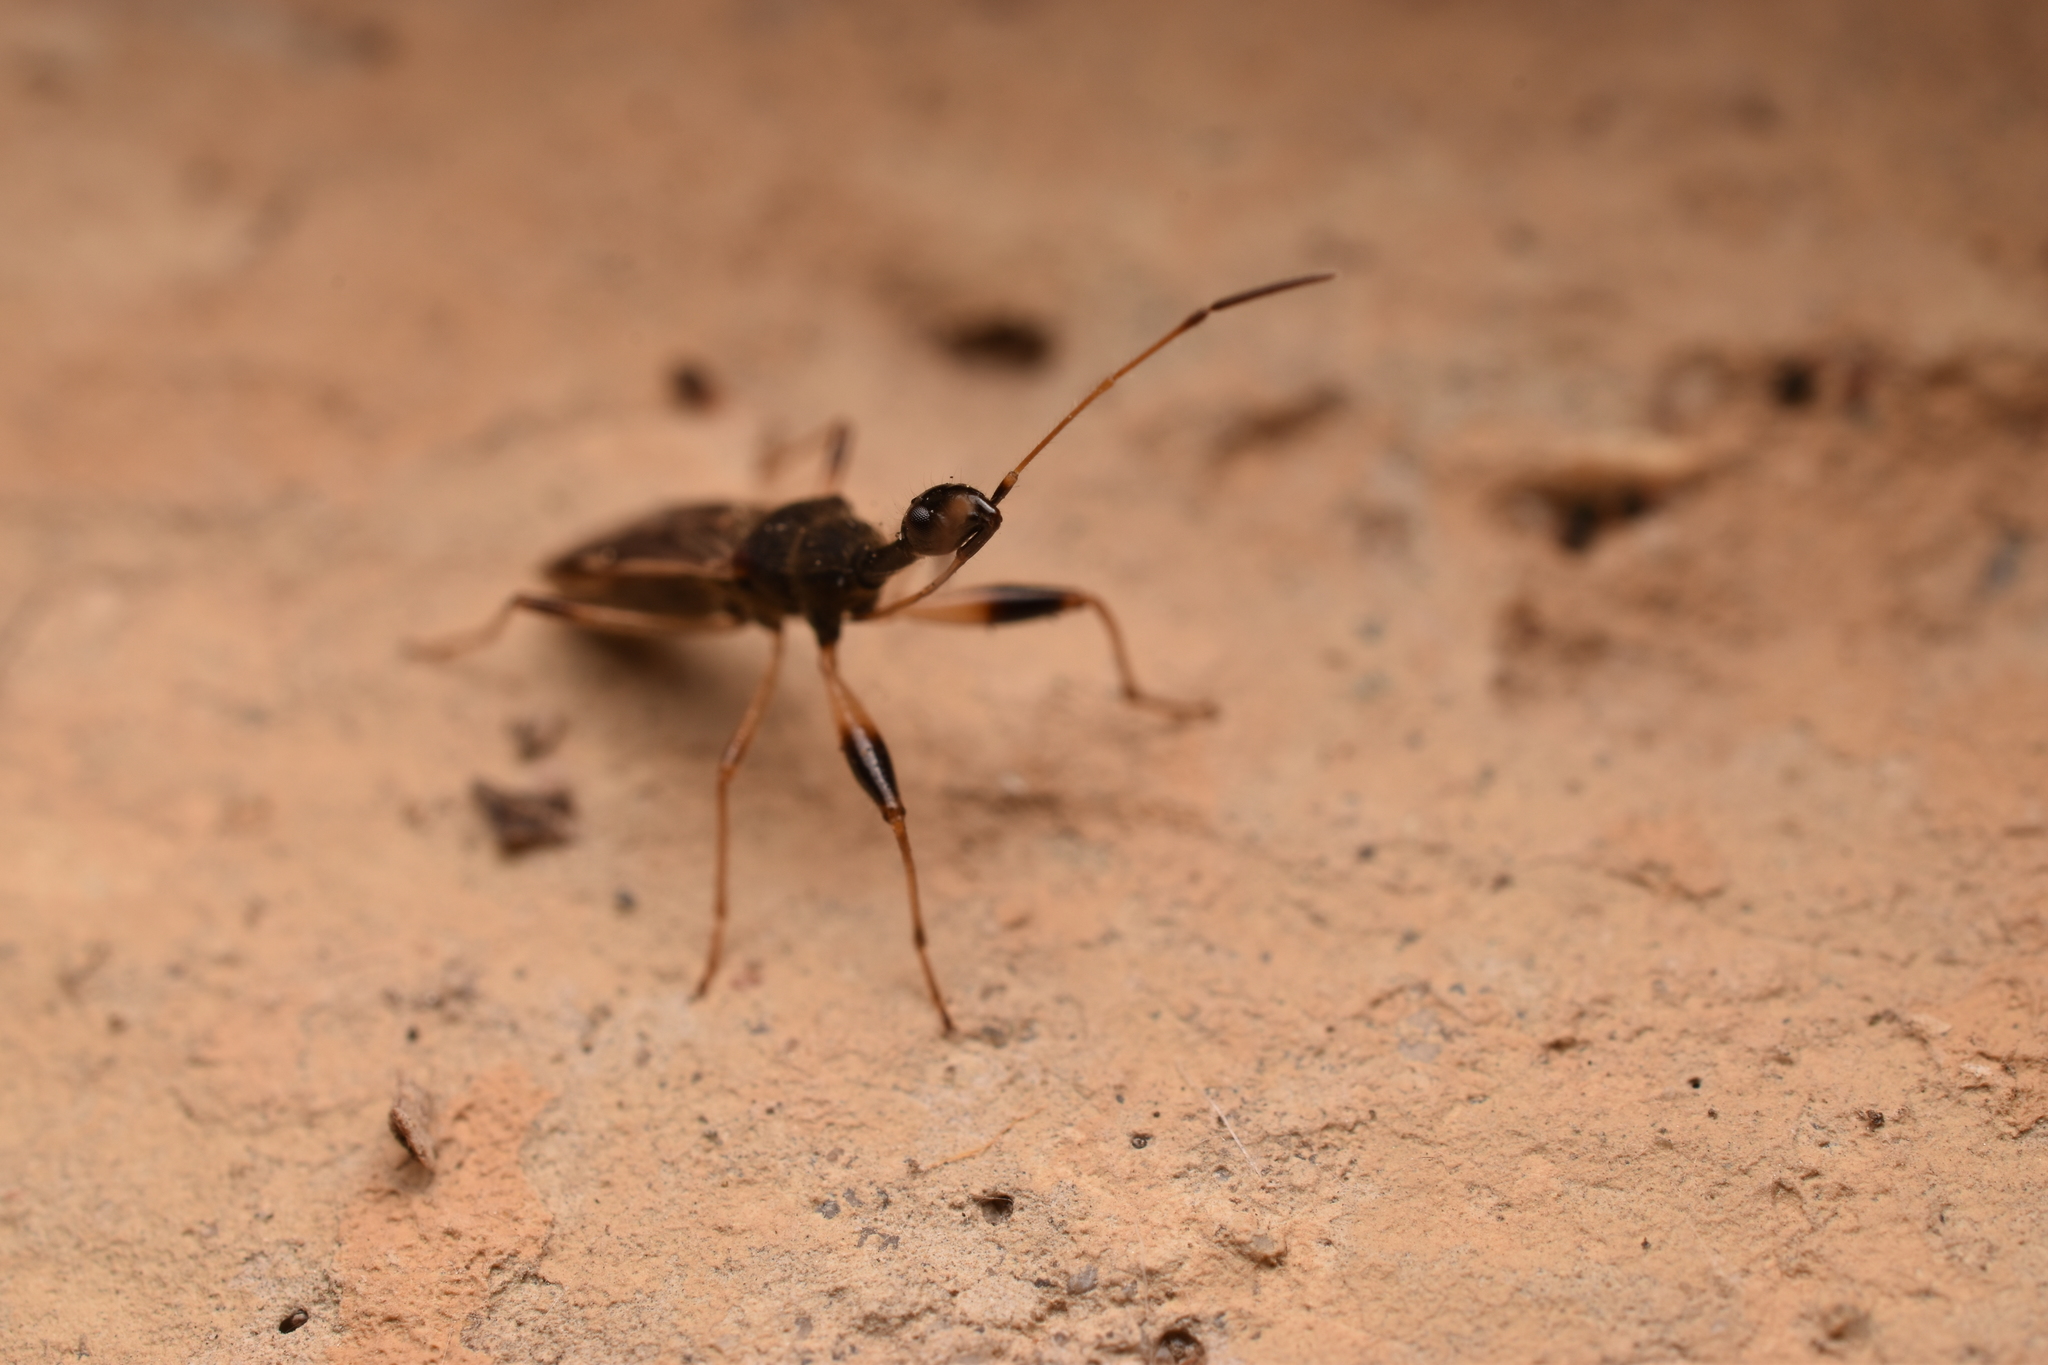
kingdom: Animalia
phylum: Arthropoda
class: Insecta
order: Hemiptera
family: Rhyparochromidae
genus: Myodocha
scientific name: Myodocha serripes
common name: Long-necked seed bug
